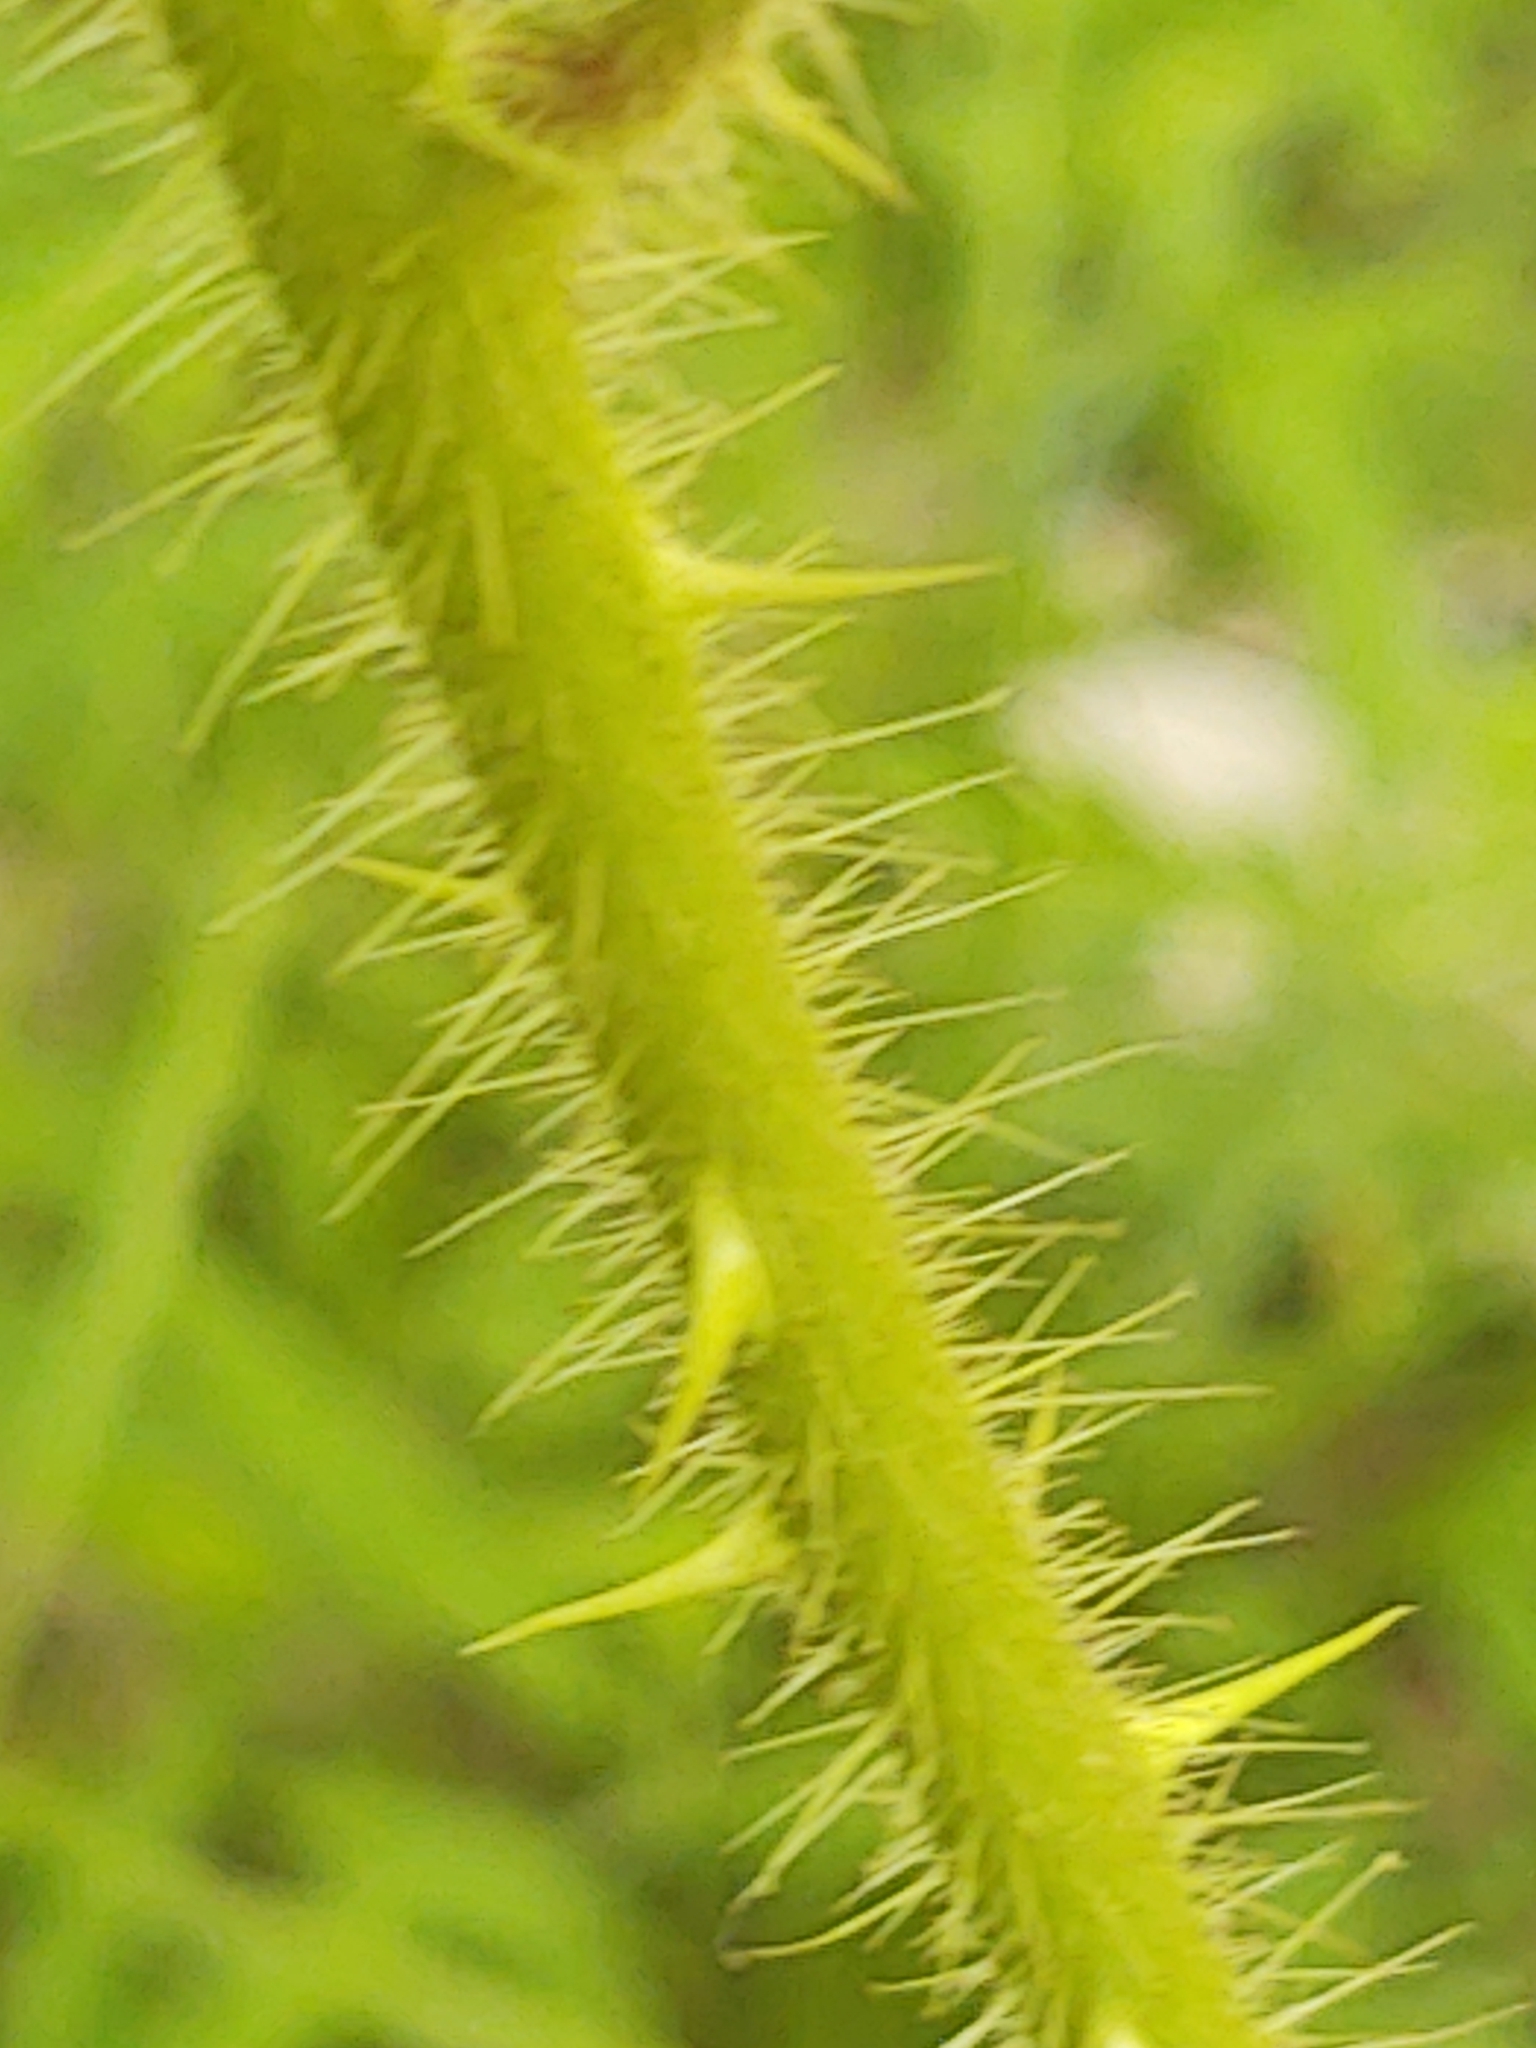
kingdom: Plantae
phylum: Tracheophyta
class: Magnoliopsida
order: Rosales
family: Rosaceae
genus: Rubus
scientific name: Rubus phoenicolasius
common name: Japanese wineberry
